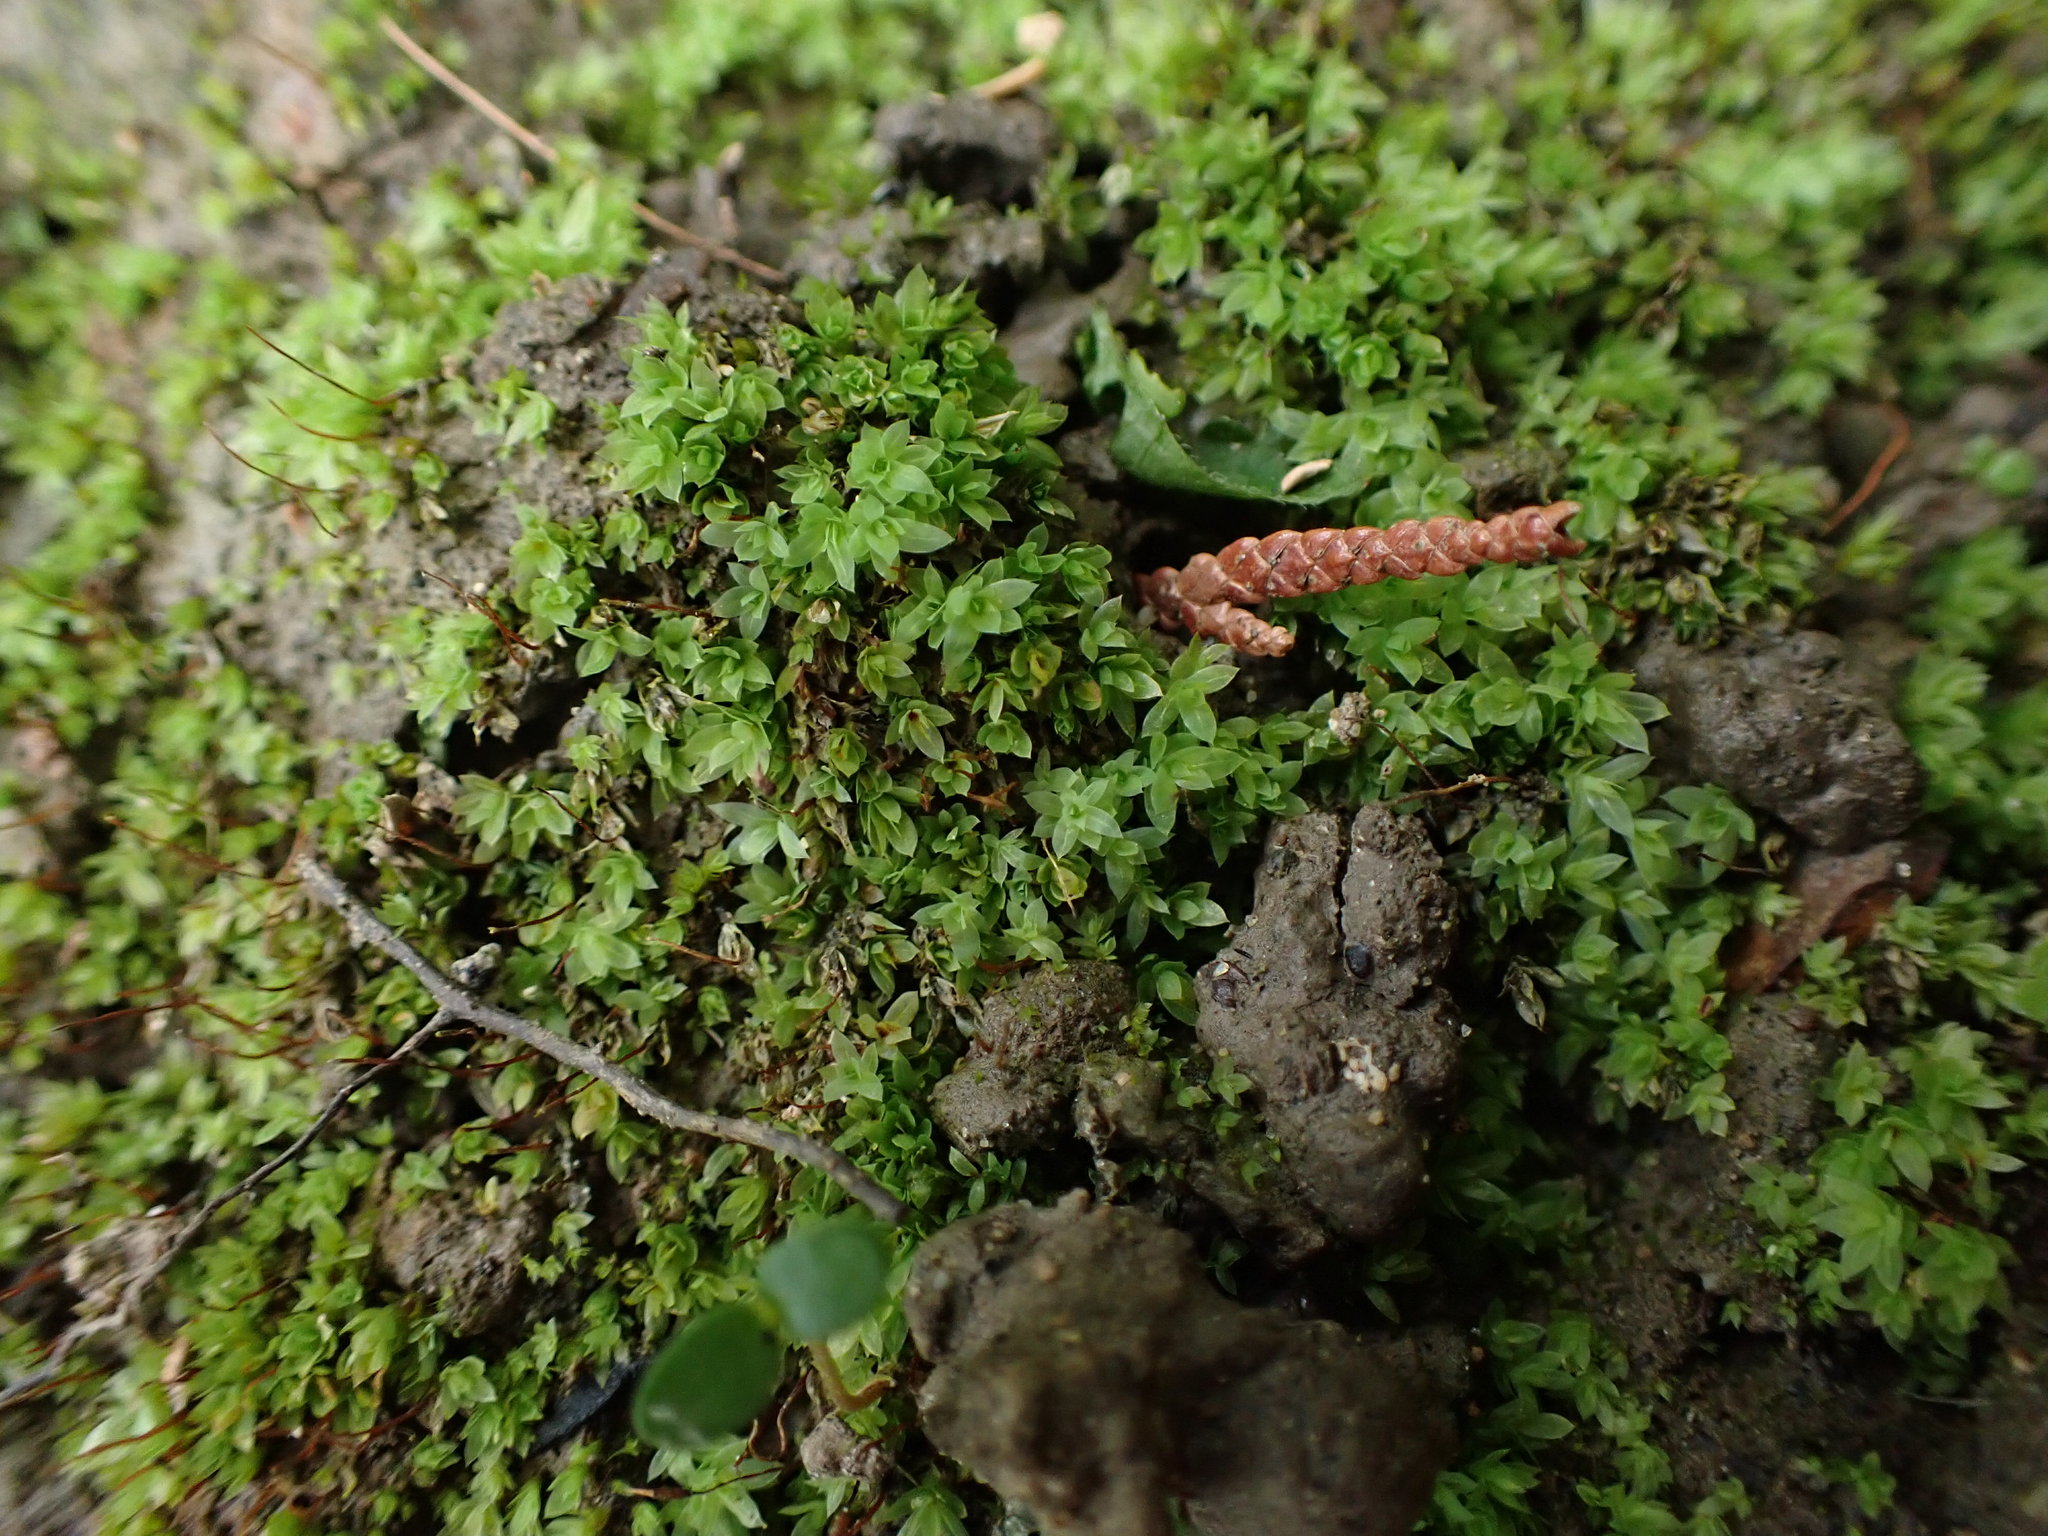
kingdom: Plantae
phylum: Bryophyta
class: Bryopsida
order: Bryales
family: Mniaceae
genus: Epipterygium
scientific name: Epipterygium biauritum
